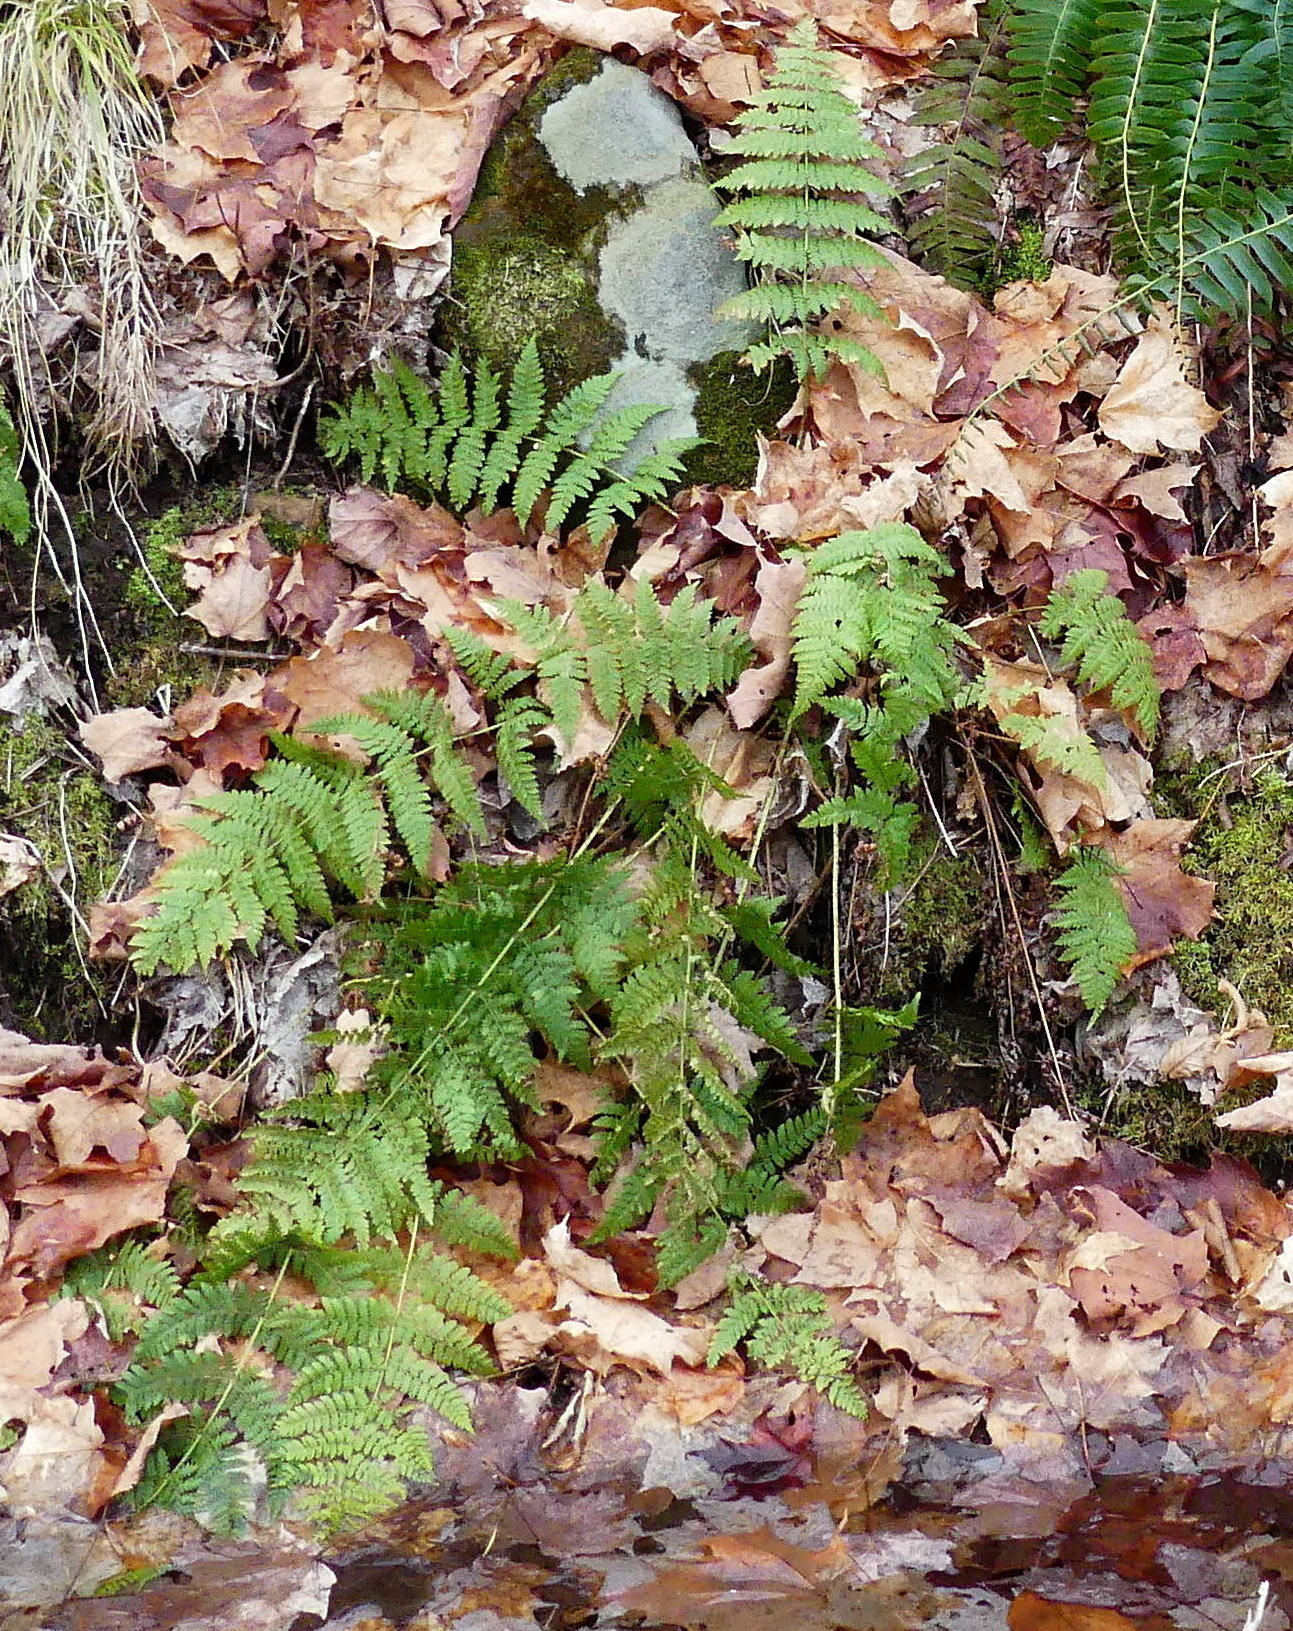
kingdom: Plantae
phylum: Tracheophyta
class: Polypodiopsida
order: Polypodiales
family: Dryopteridaceae
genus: Dryopteris
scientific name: Dryopteris intermedia
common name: Evergreen wood fern
